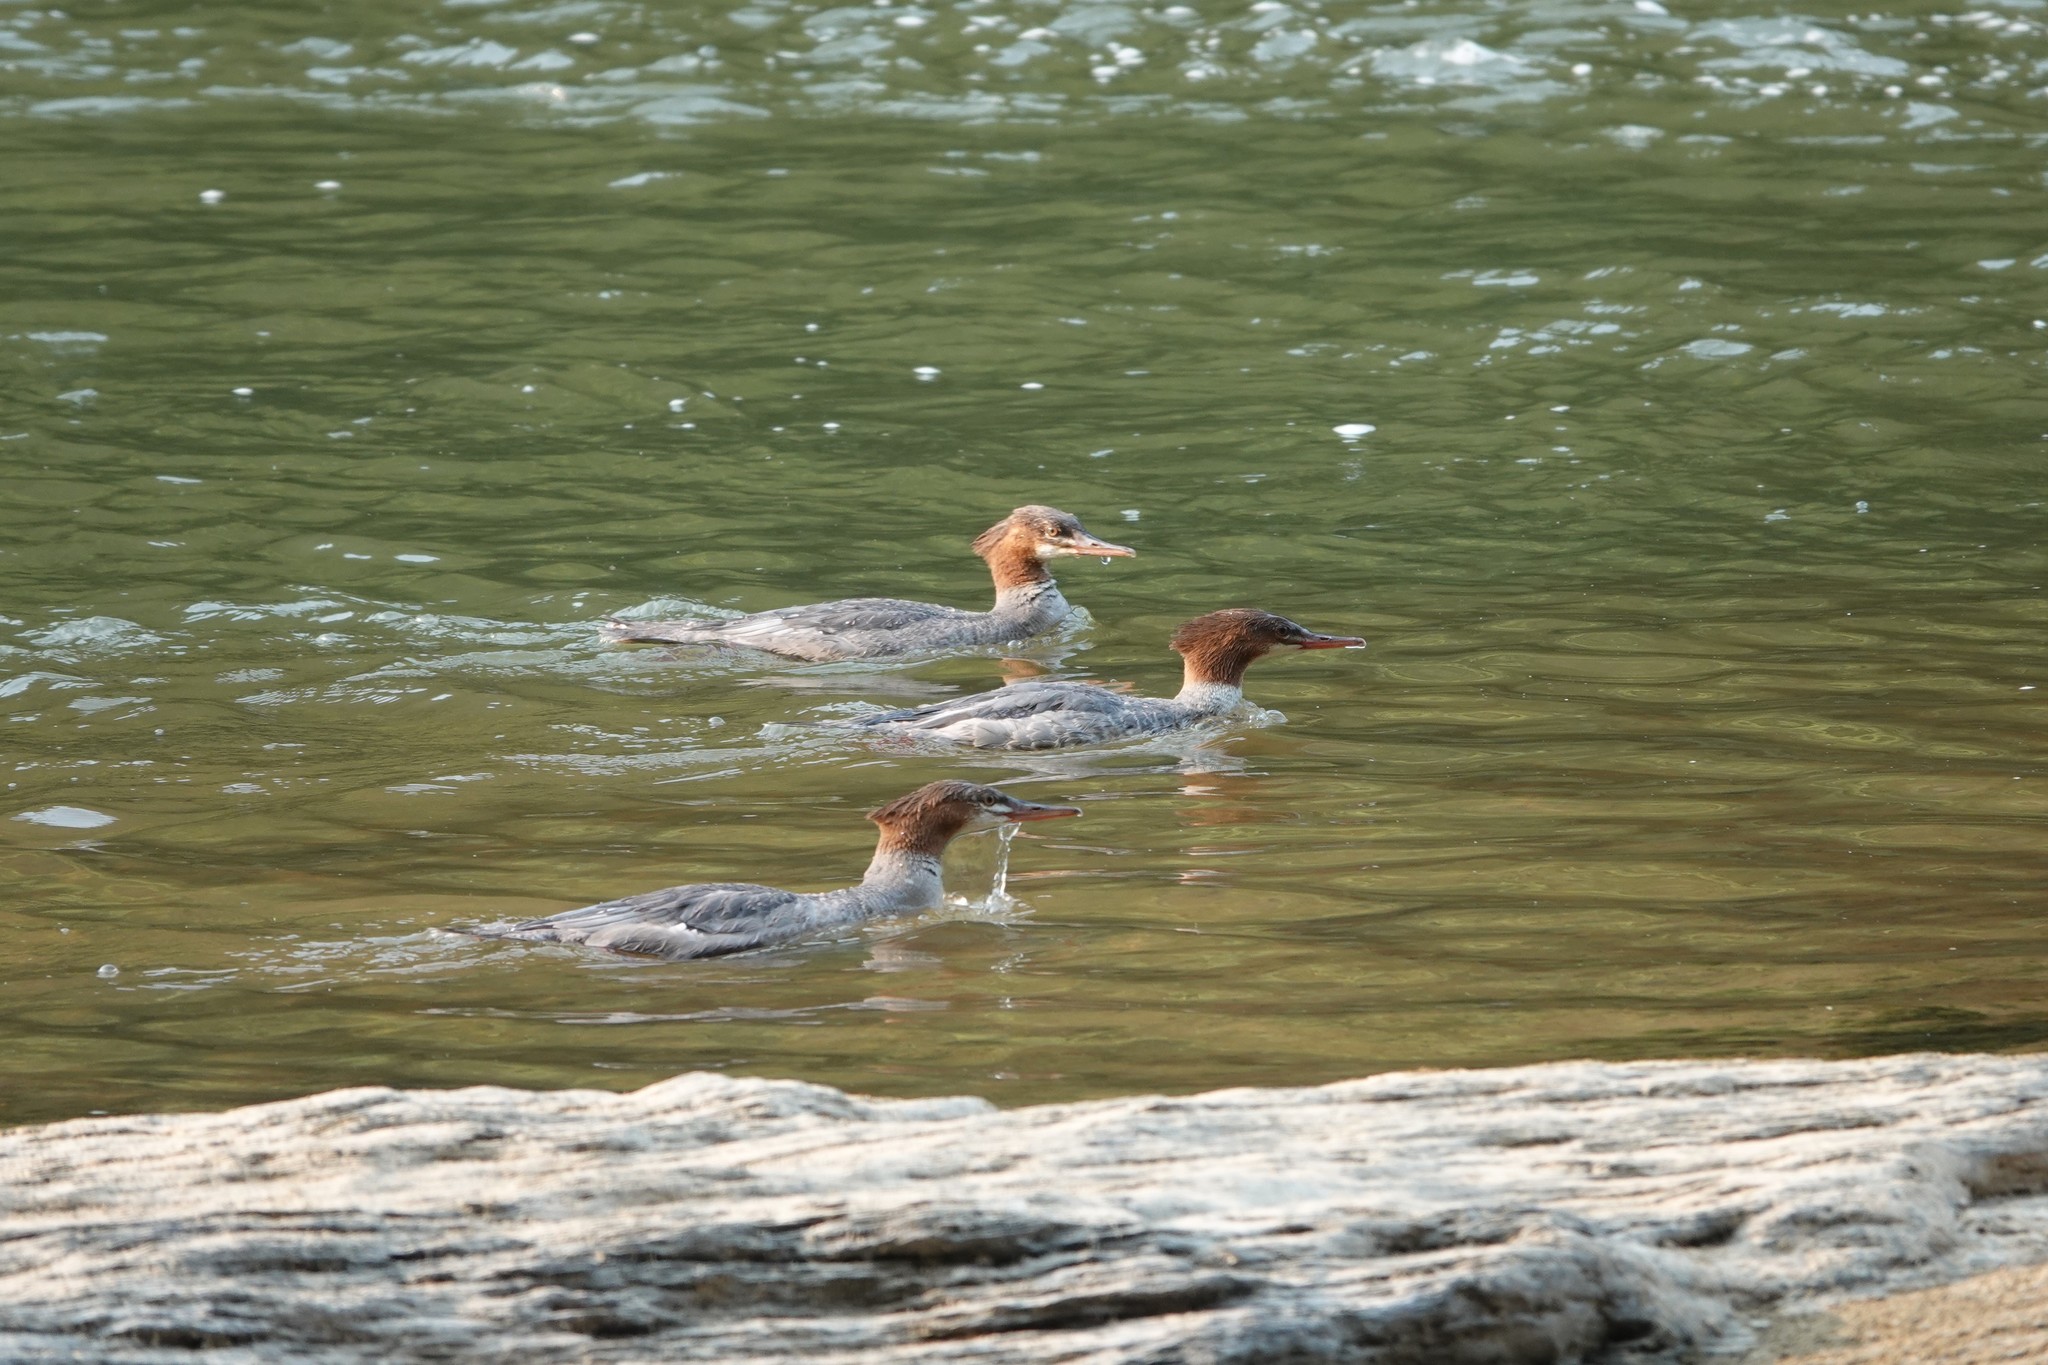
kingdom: Animalia
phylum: Chordata
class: Aves
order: Anseriformes
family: Anatidae
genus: Mergus
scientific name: Mergus merganser
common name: Common merganser
